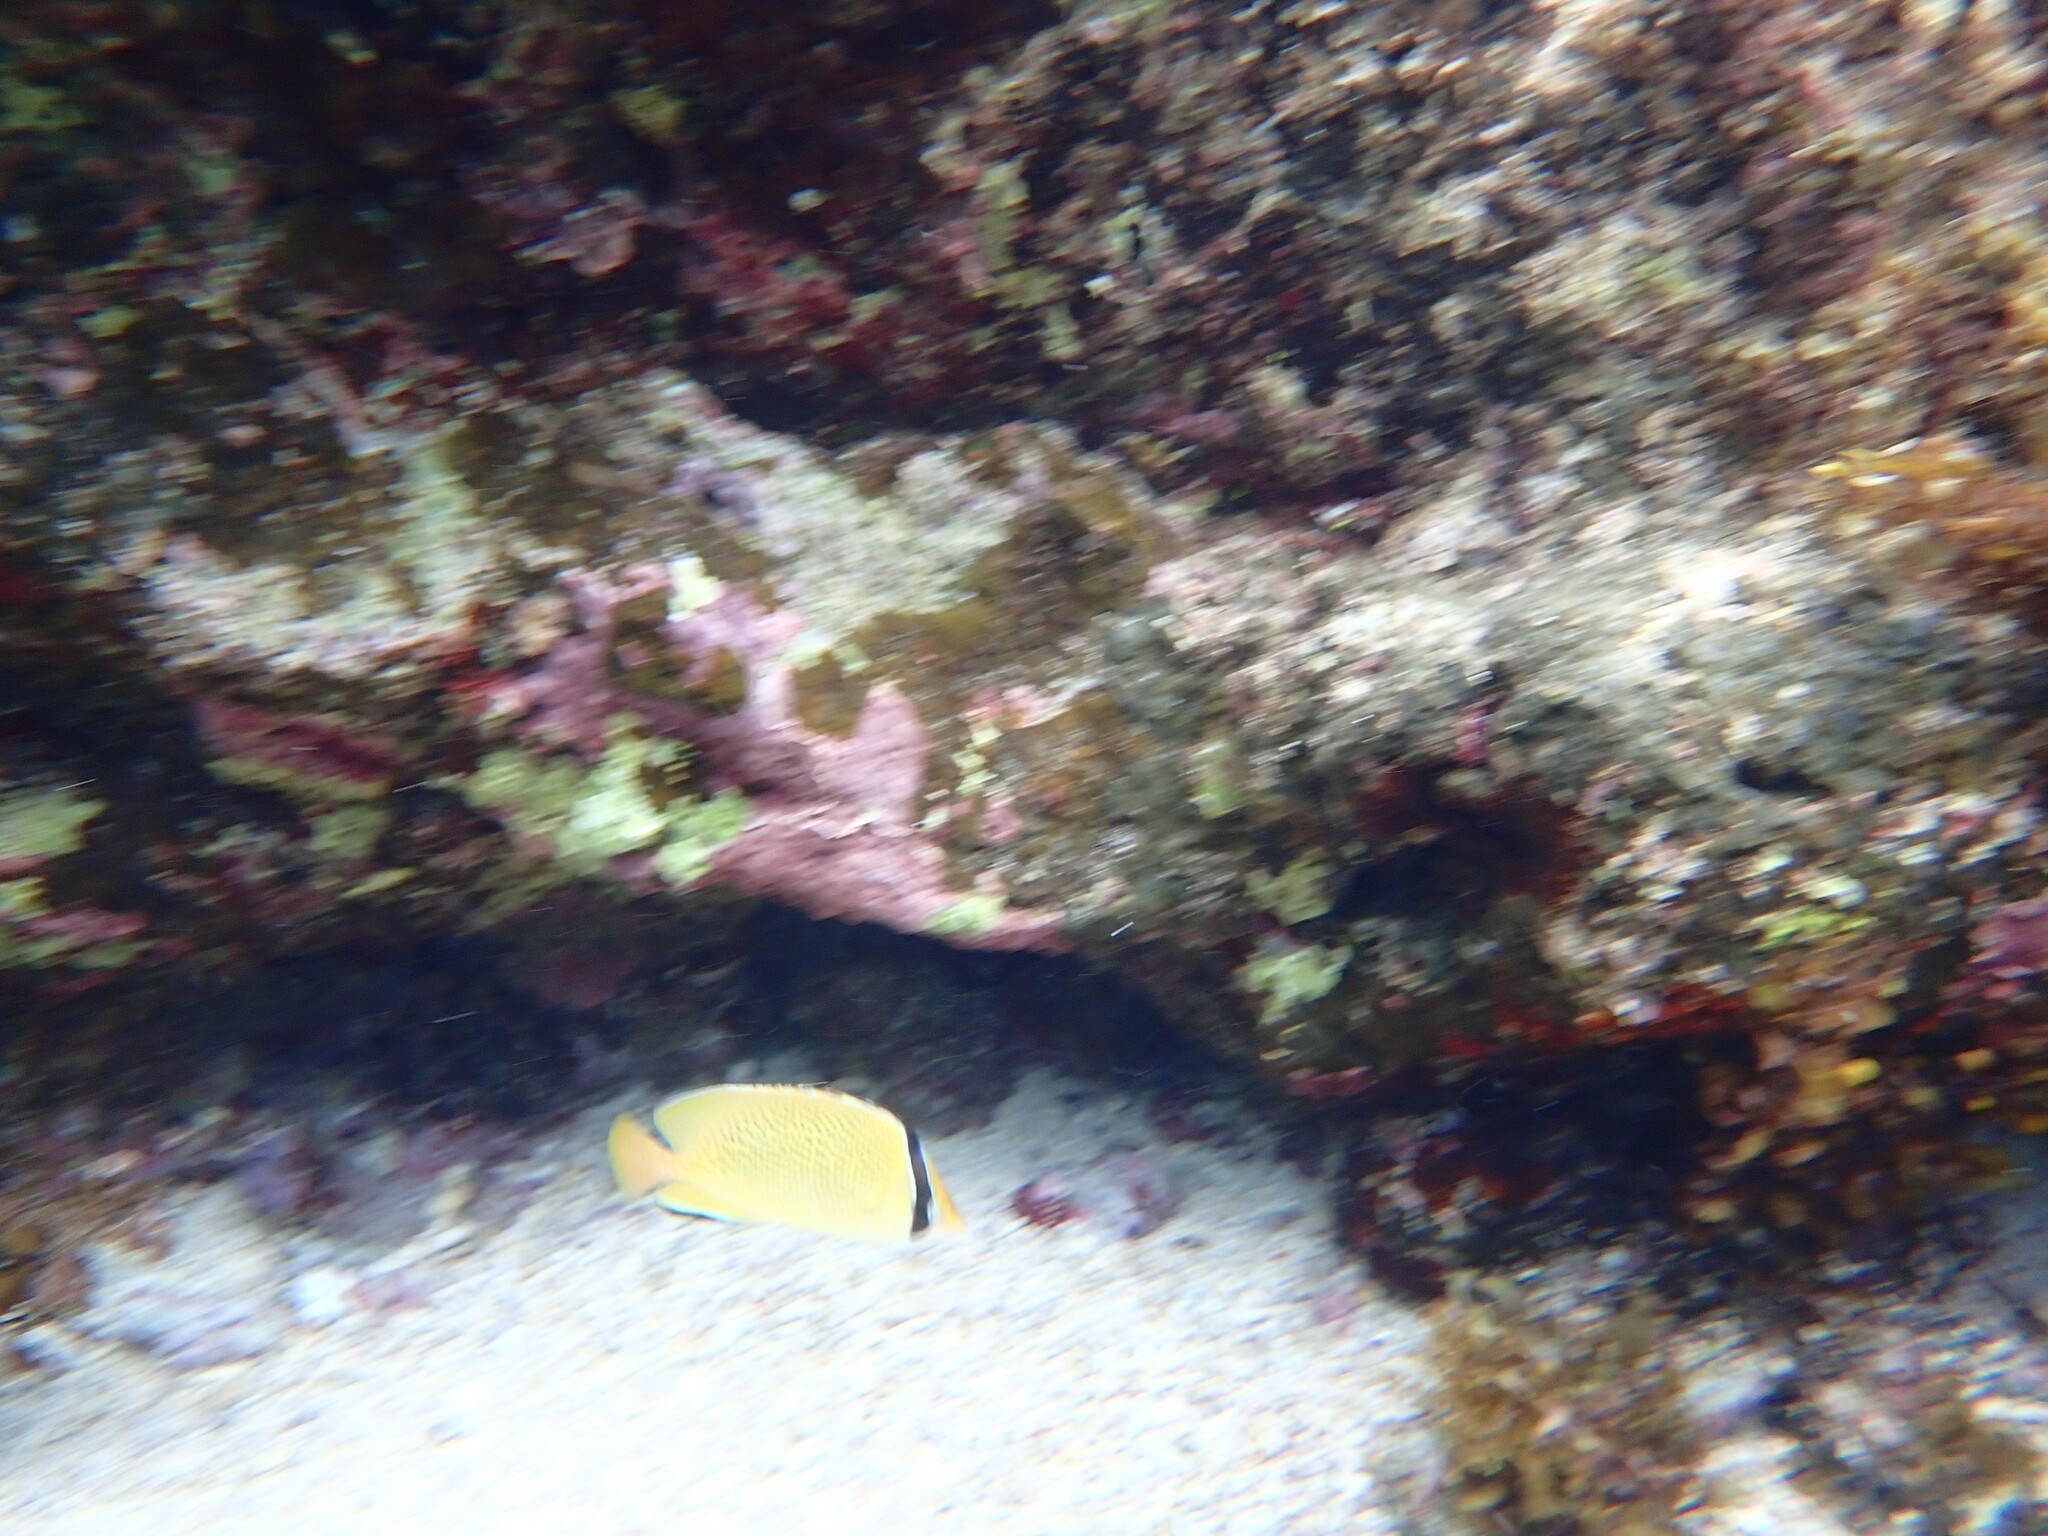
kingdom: Animalia
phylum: Chordata
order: Perciformes
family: Chaetodontidae
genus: Chaetodon
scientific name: Chaetodon citrinellus
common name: Speckled butterflyfish
